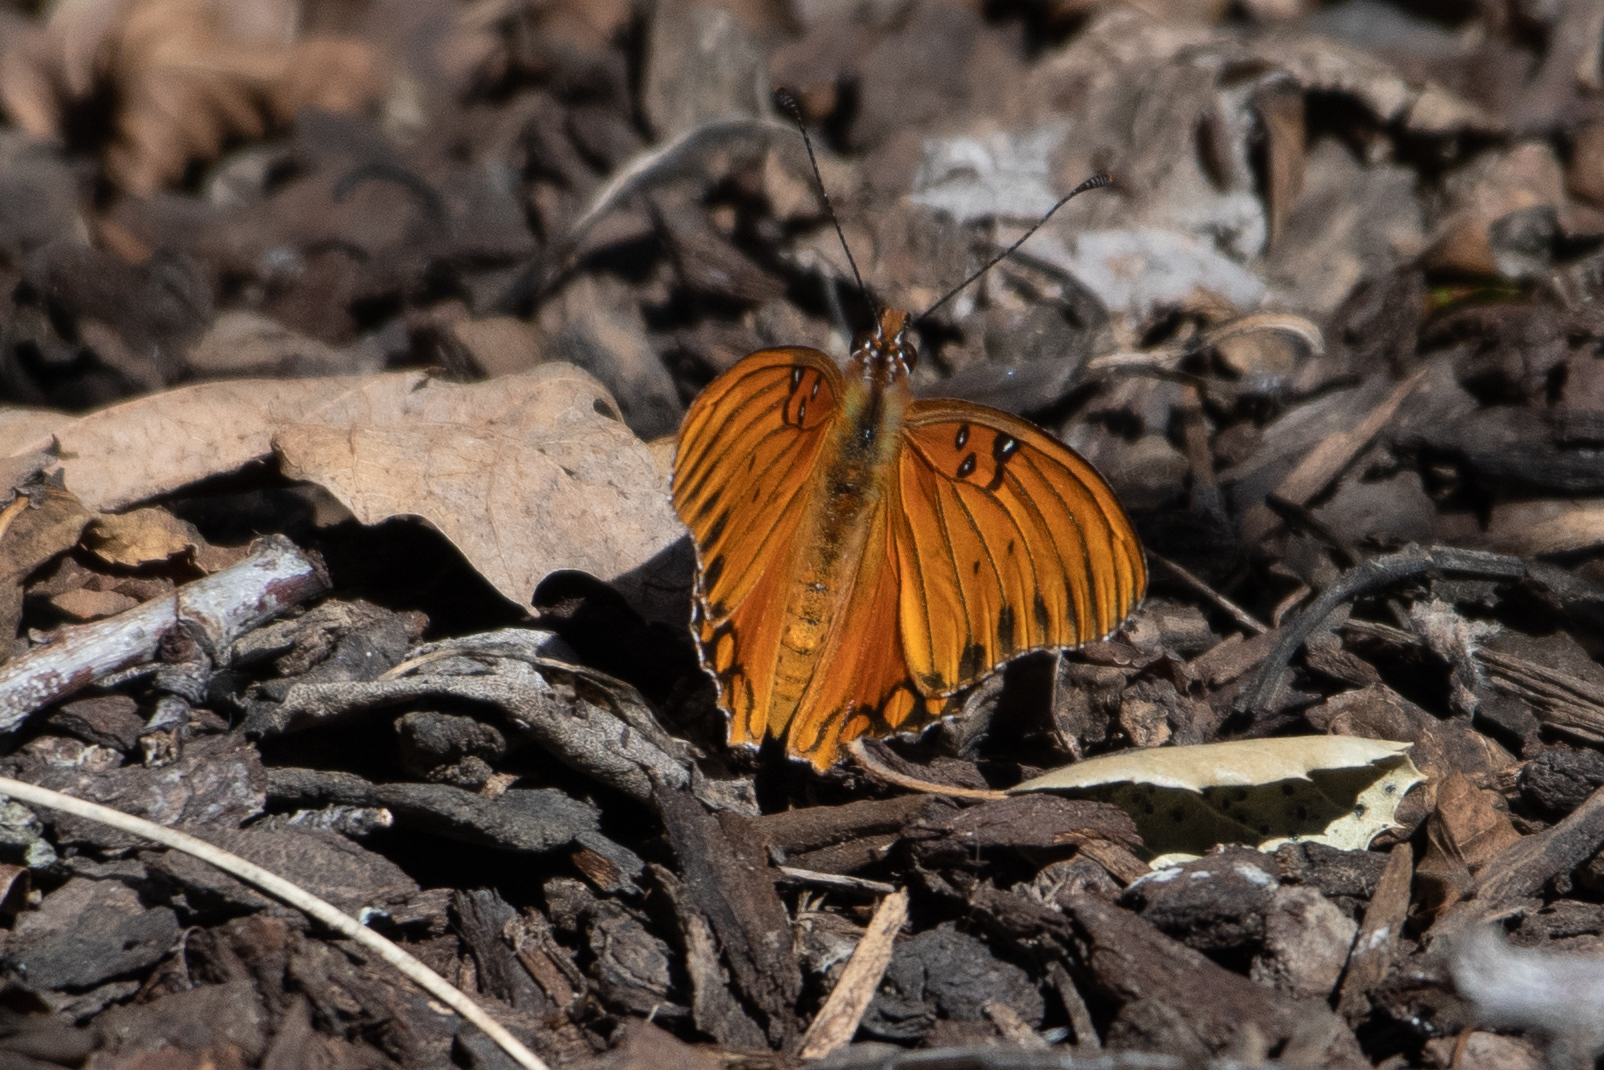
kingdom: Animalia
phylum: Arthropoda
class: Insecta
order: Lepidoptera
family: Nymphalidae
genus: Dione
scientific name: Dione vanillae
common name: Gulf fritillary
